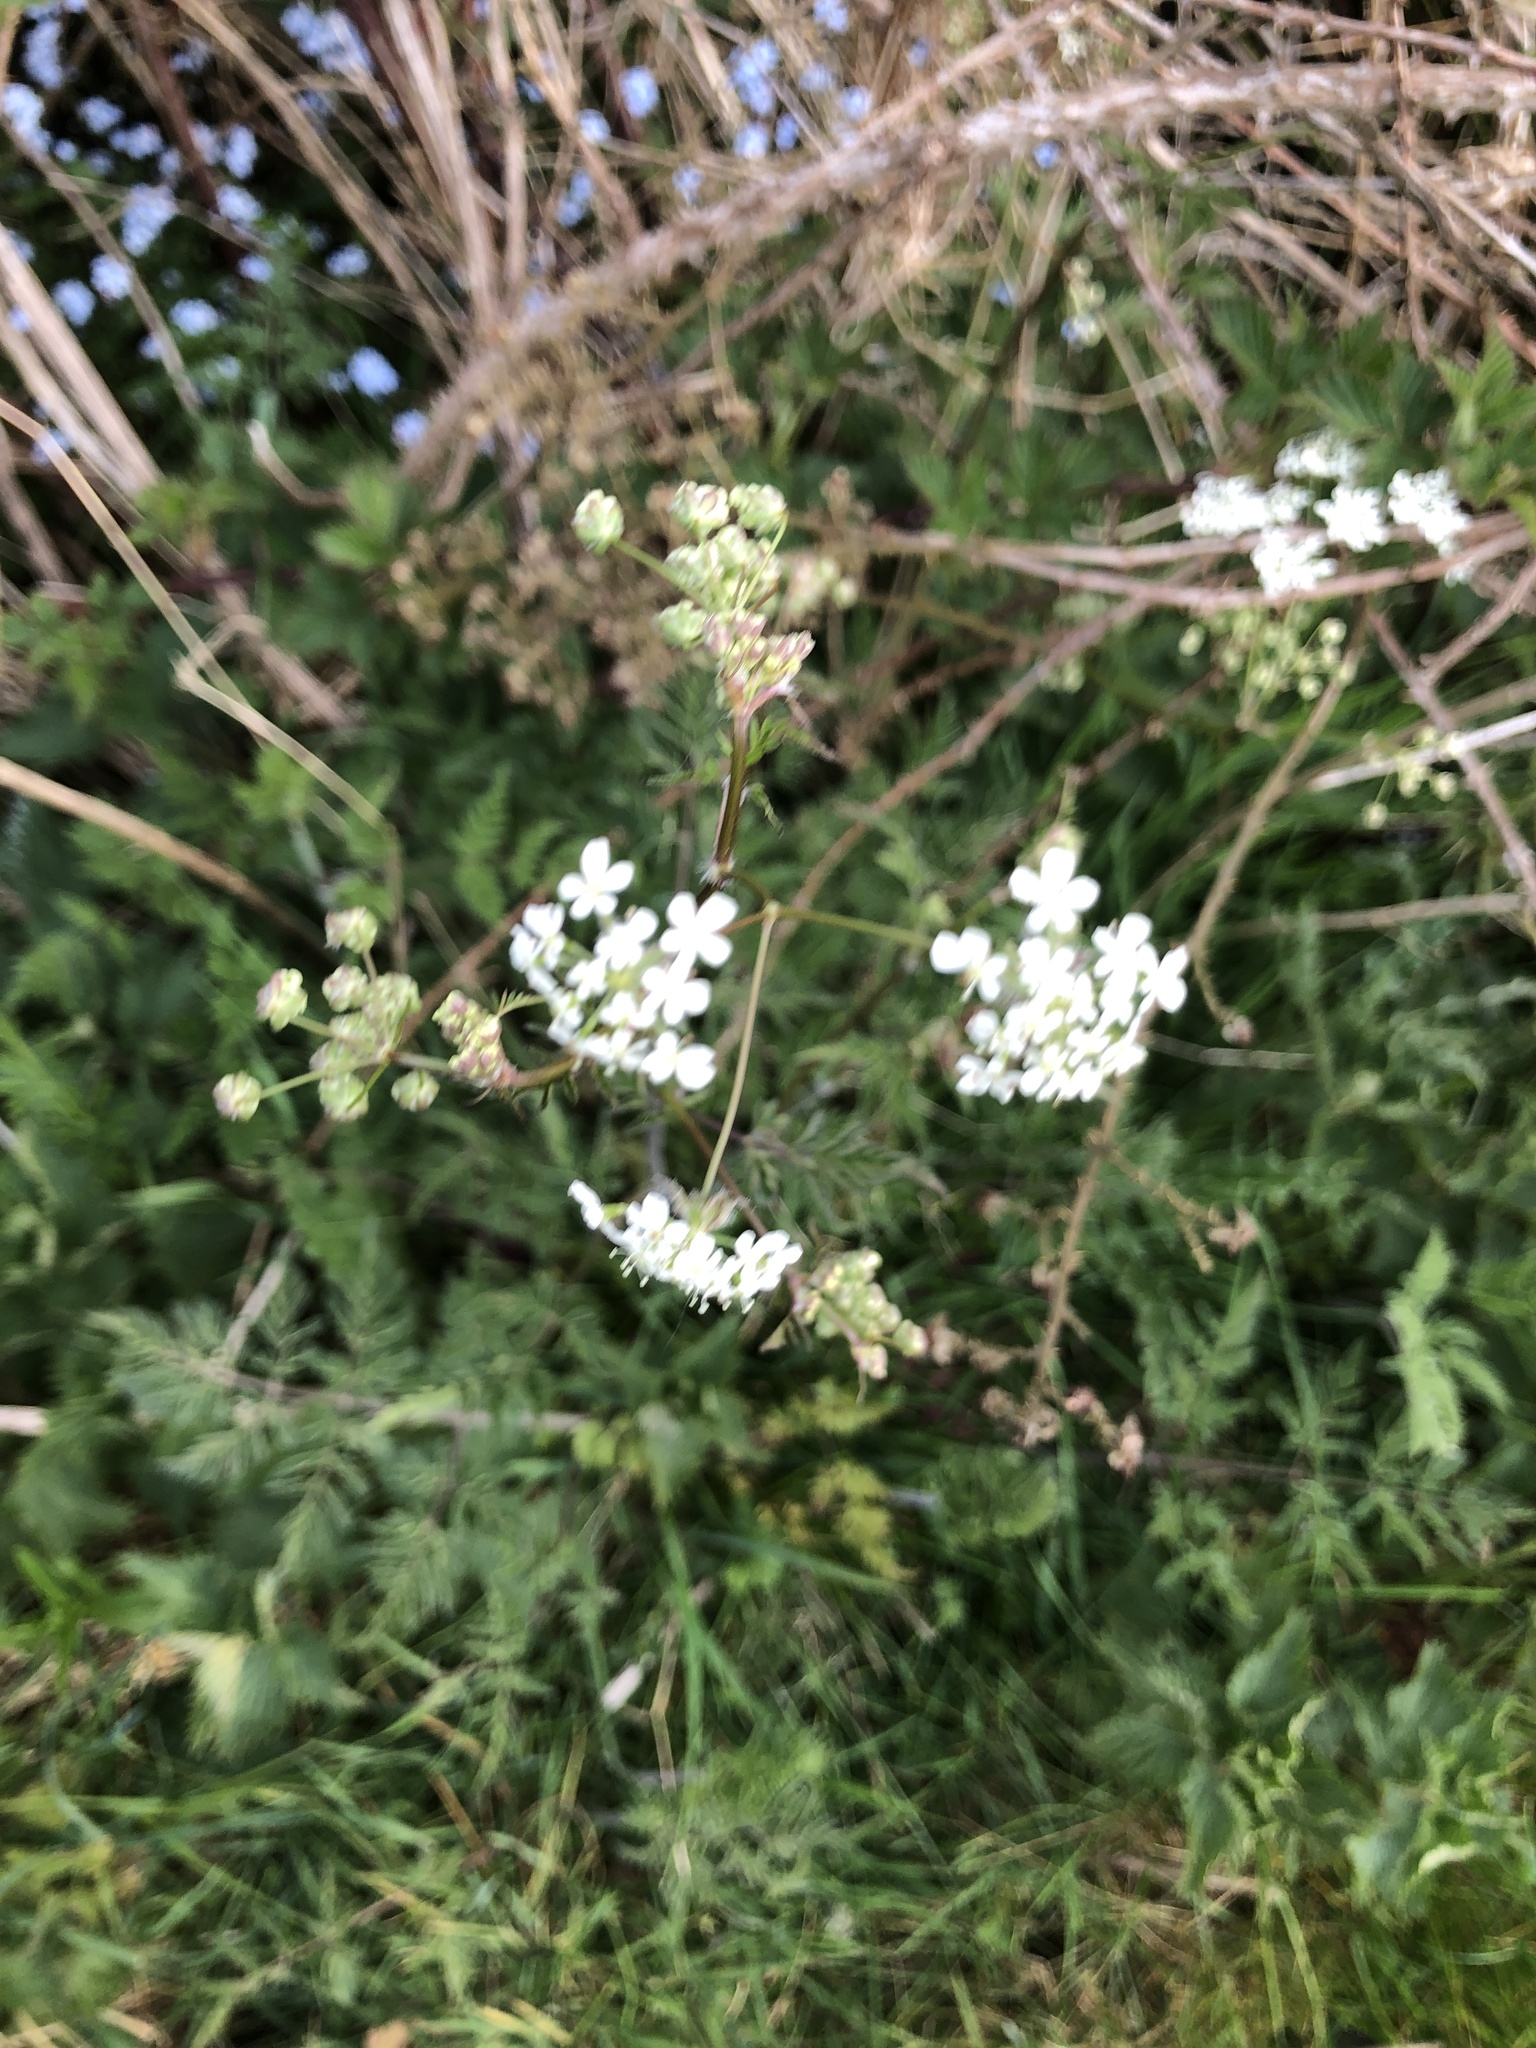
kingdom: Plantae
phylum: Tracheophyta
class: Magnoliopsida
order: Apiales
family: Apiaceae
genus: Anthriscus
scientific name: Anthriscus sylvestris
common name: Cow parsley
